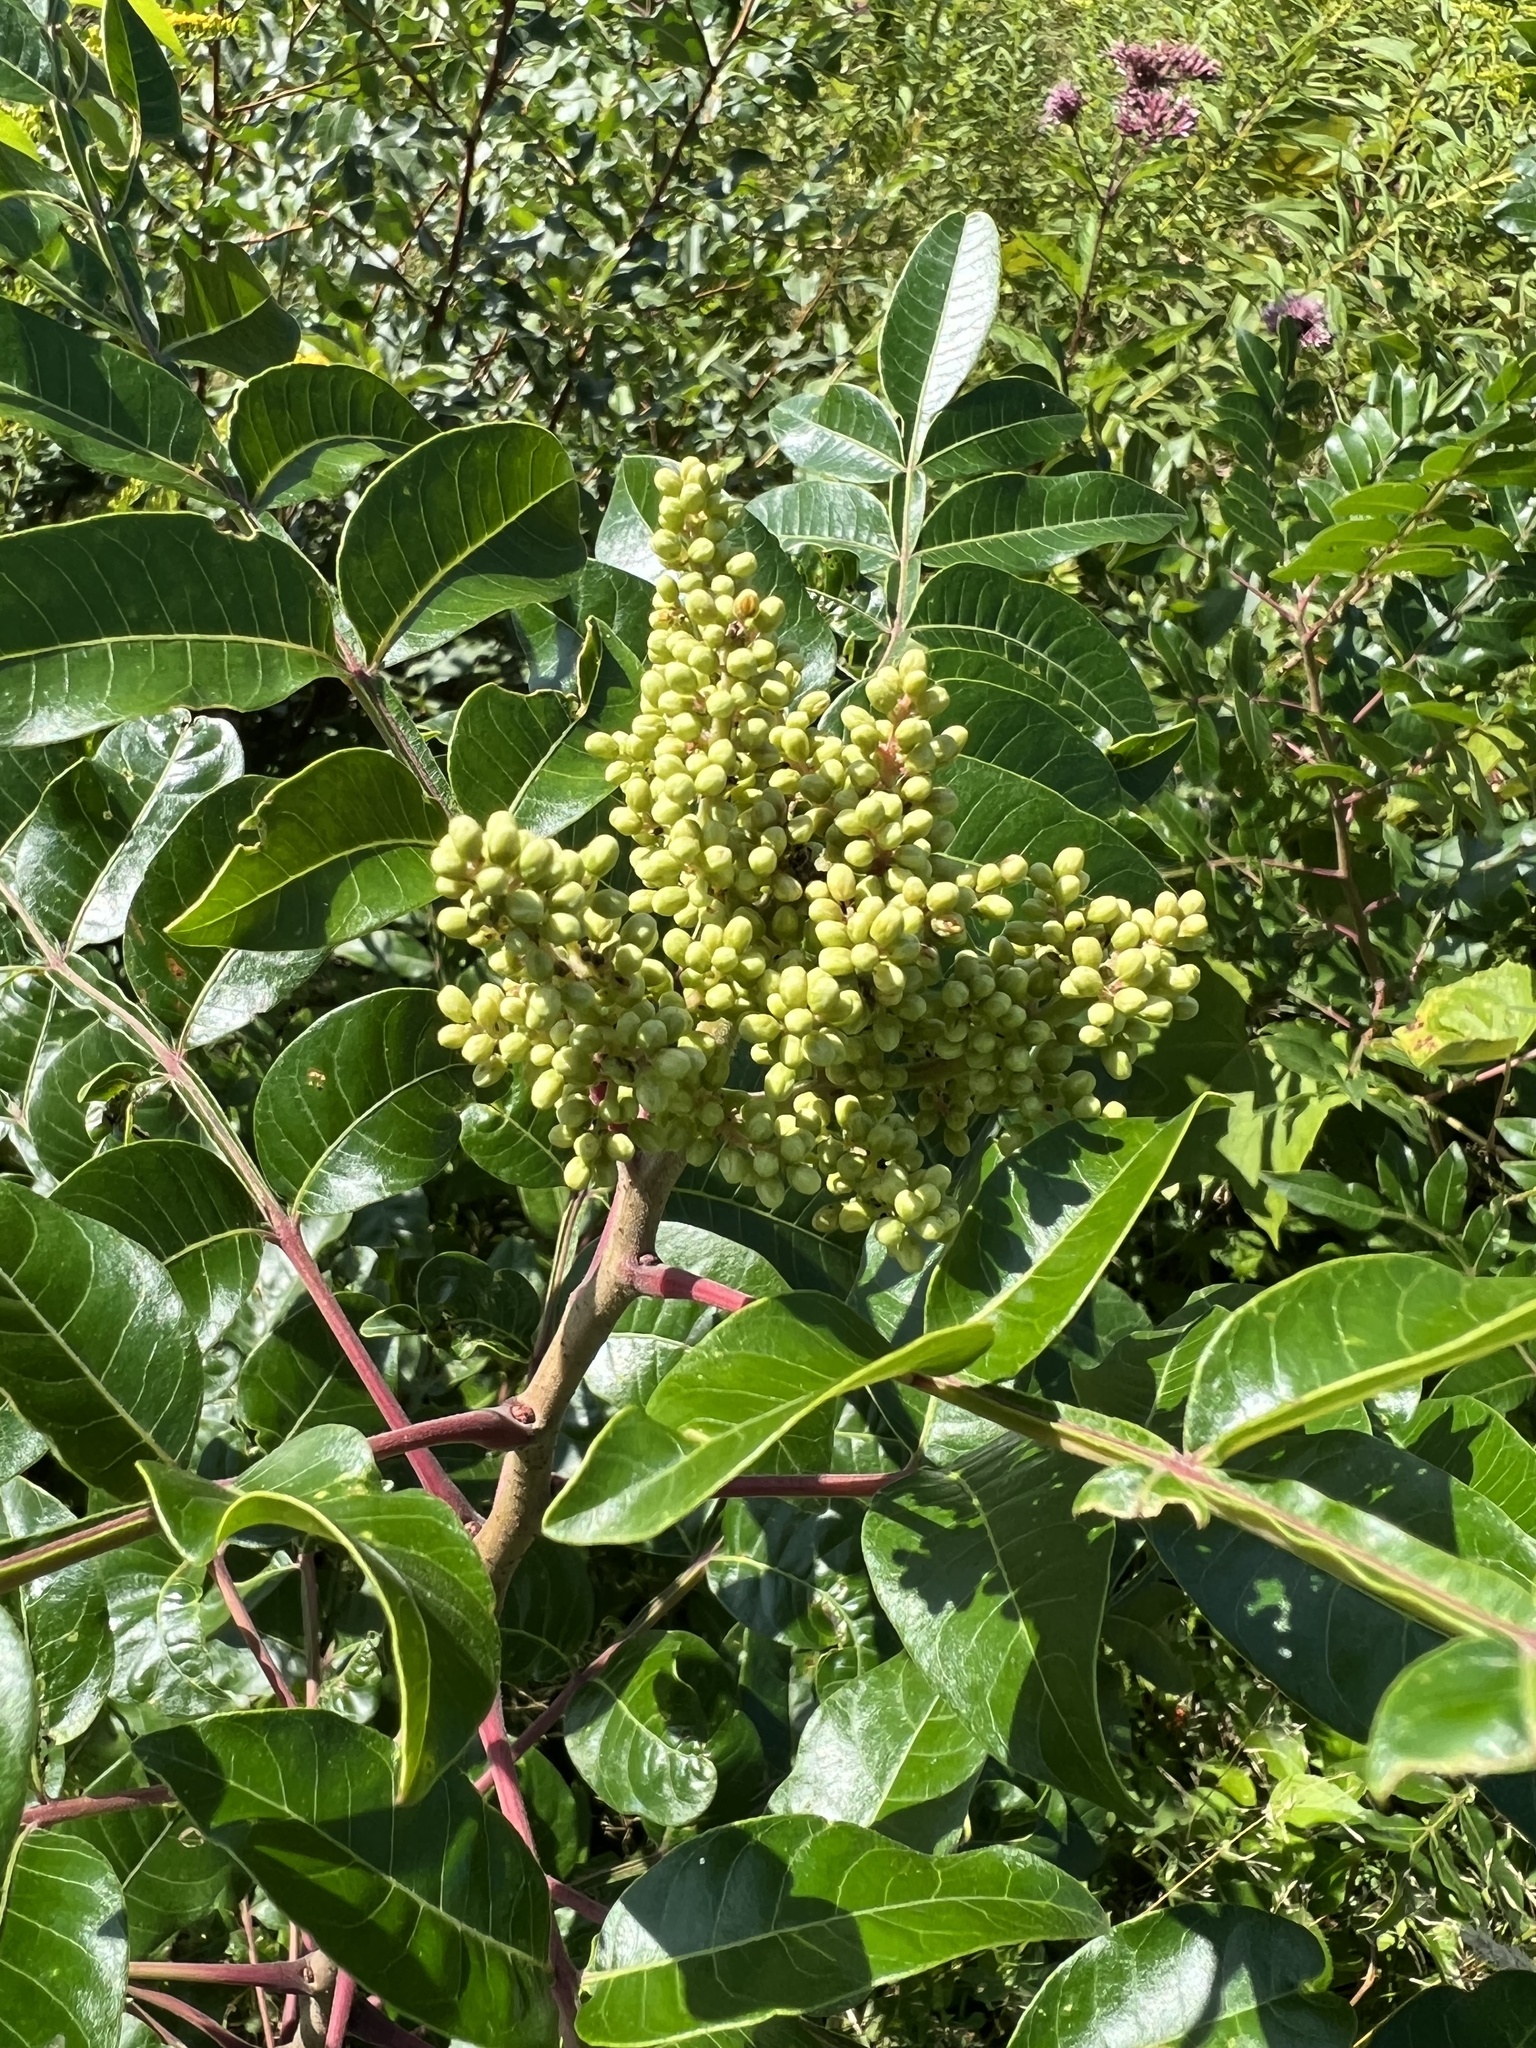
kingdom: Plantae
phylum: Tracheophyta
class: Magnoliopsida
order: Sapindales
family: Anacardiaceae
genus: Rhus
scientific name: Rhus copallina
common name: Shining sumac
